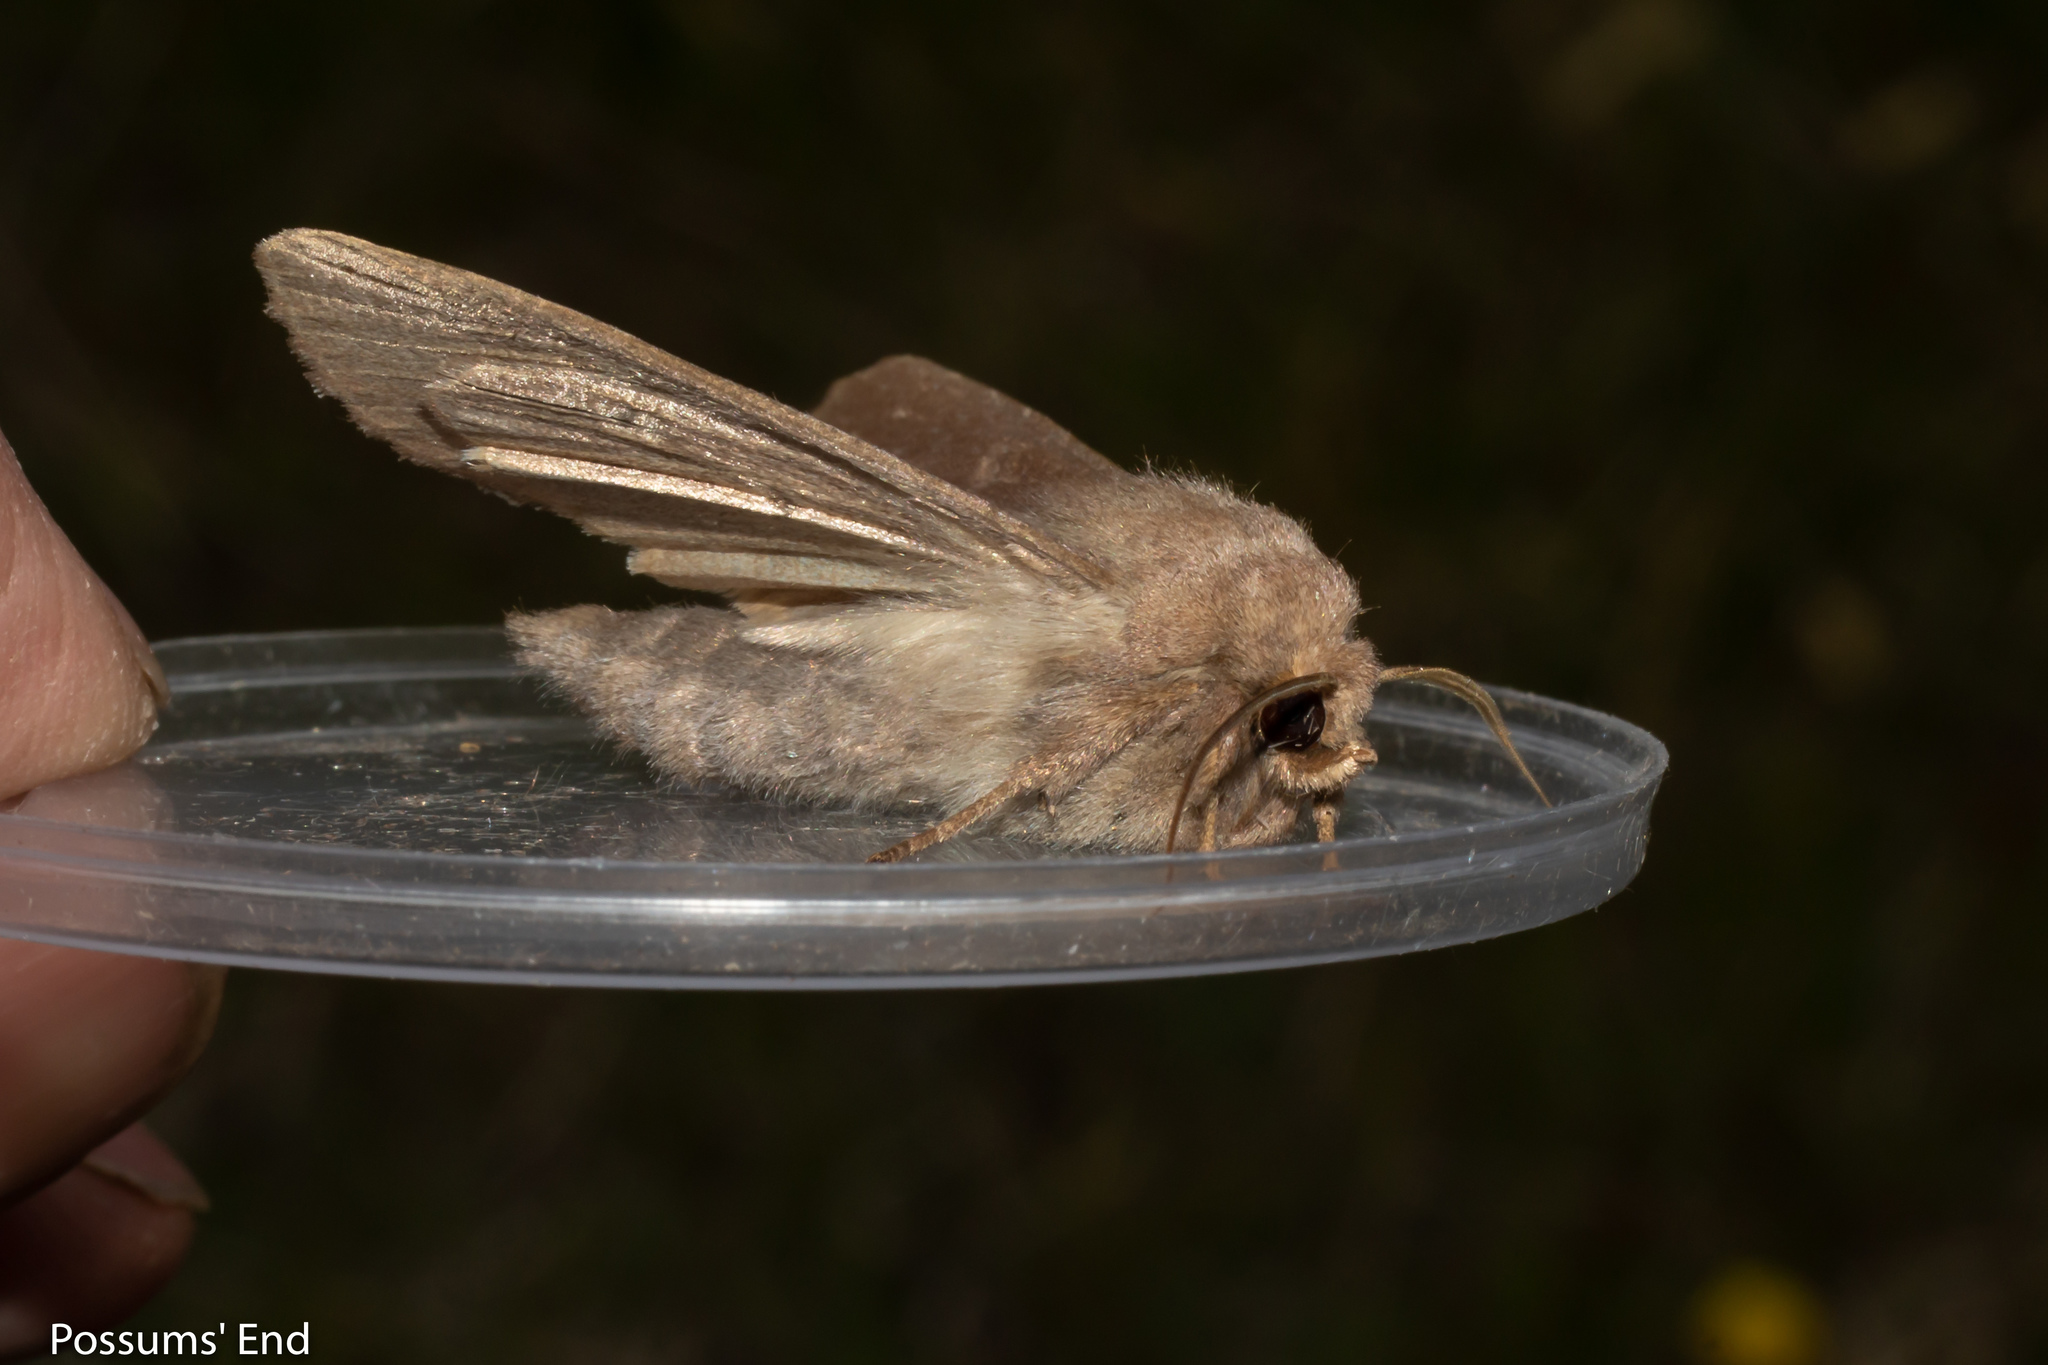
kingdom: Animalia
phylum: Arthropoda
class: Insecta
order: Lepidoptera
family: Noctuidae
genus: Ichneutica
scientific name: Ichneutica nullifera
